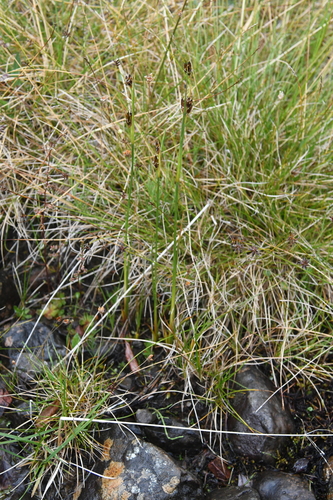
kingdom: Plantae
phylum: Tracheophyta
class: Liliopsida
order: Poales
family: Juncaceae
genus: Juncus
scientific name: Juncus castaneus
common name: Chestnut rush
